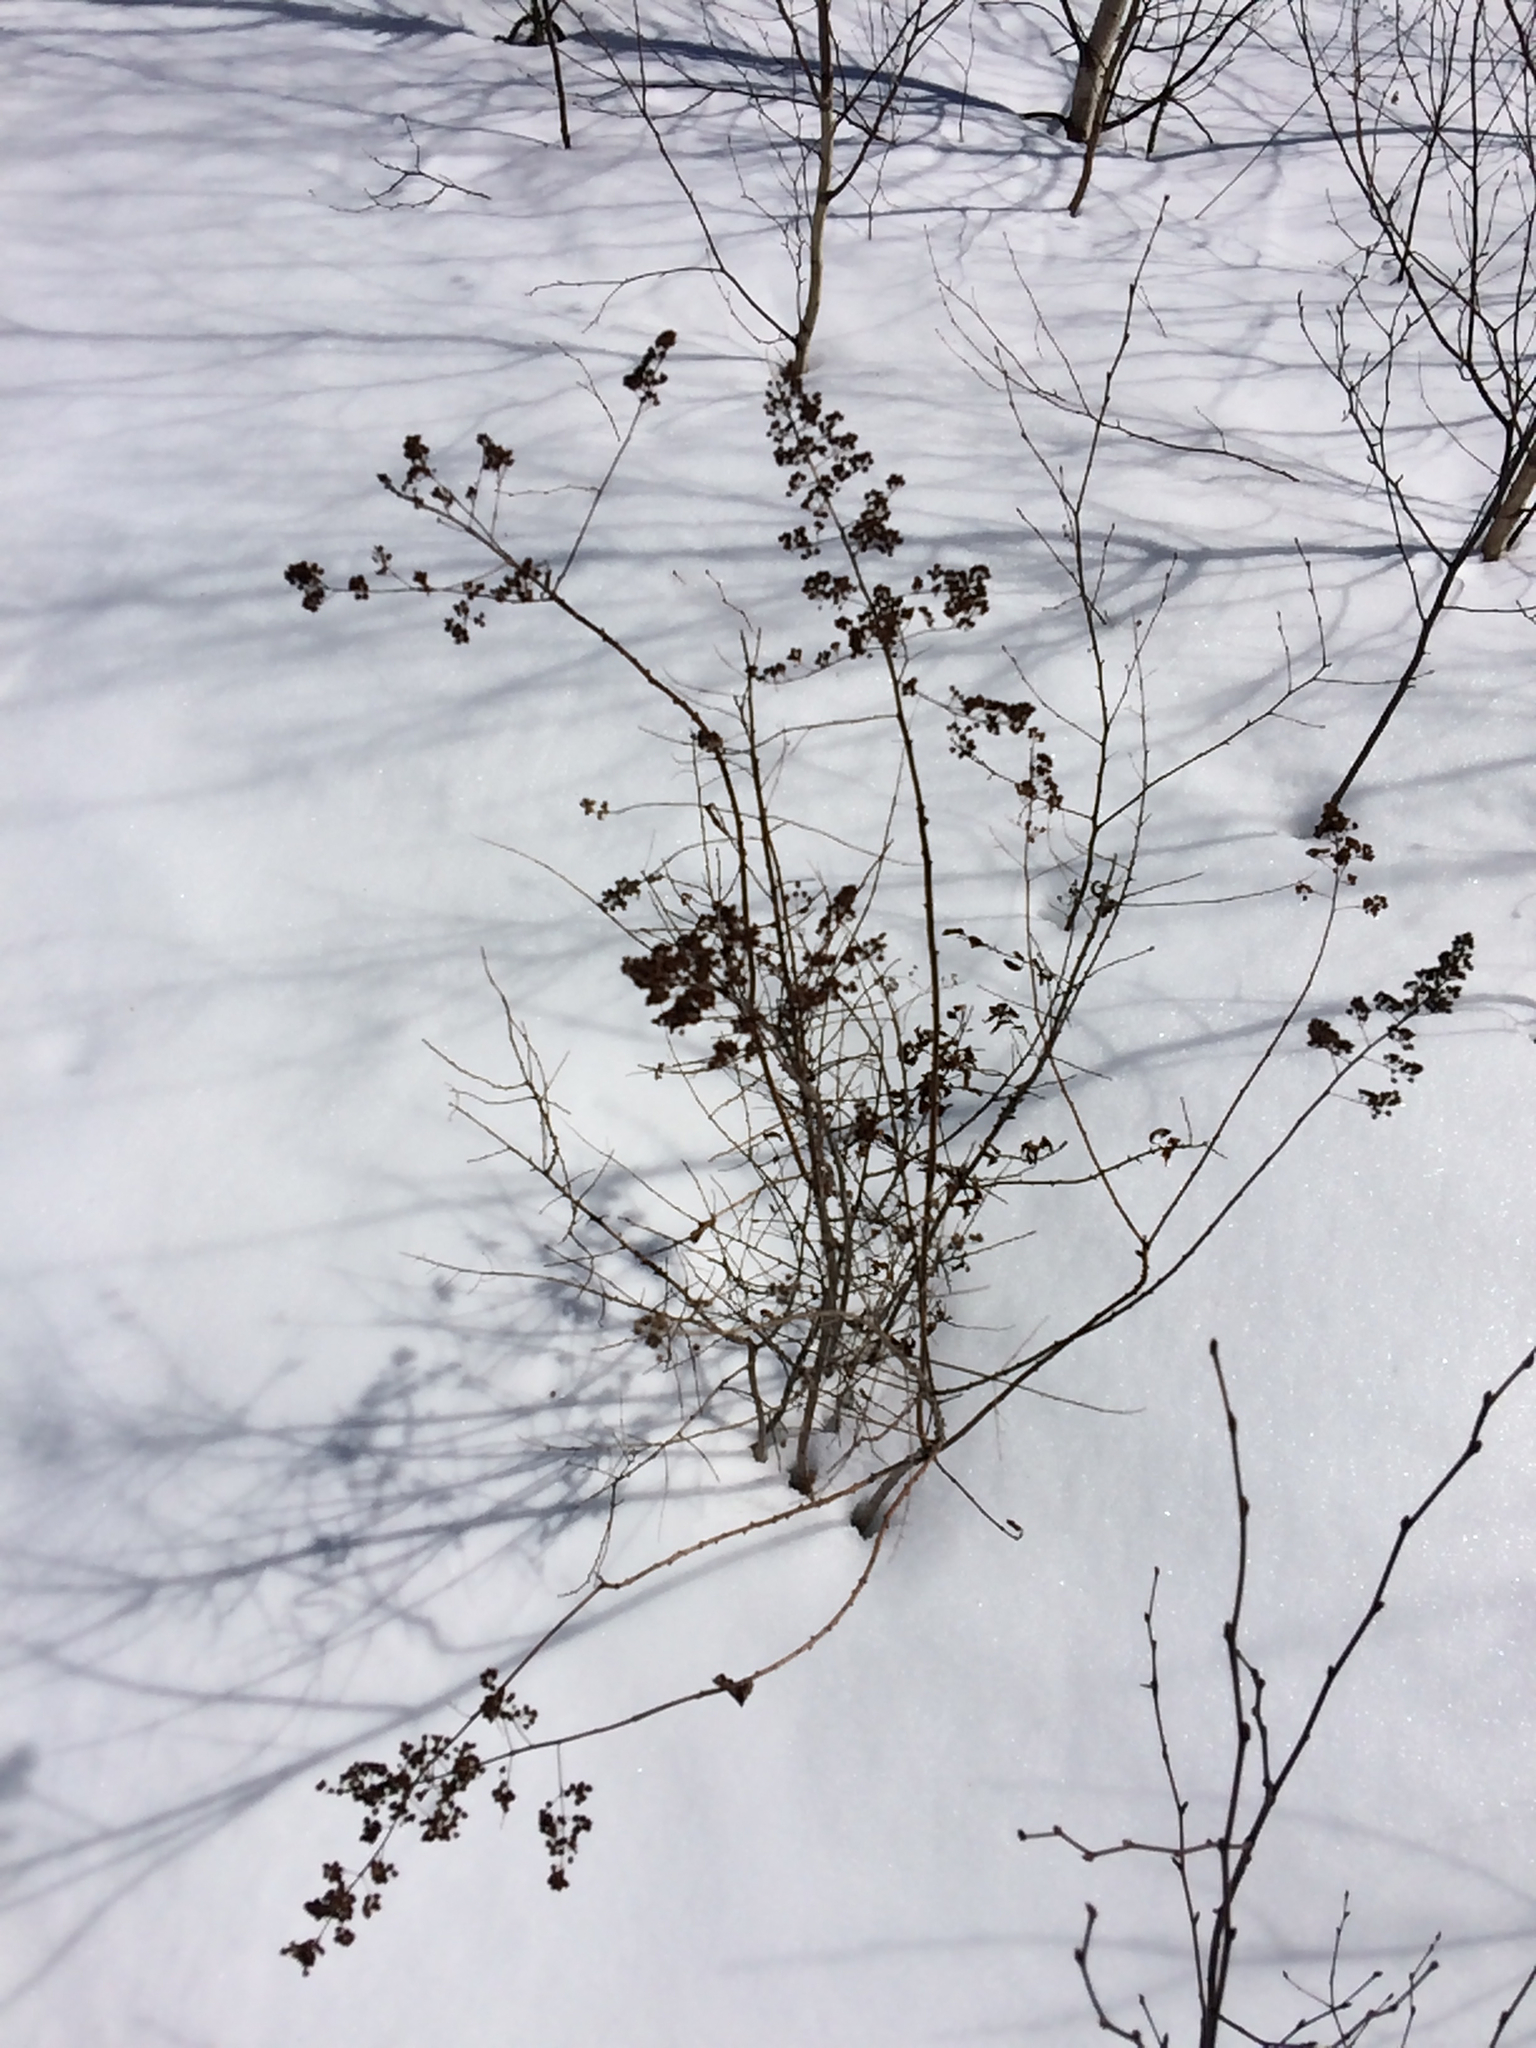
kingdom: Plantae
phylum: Tracheophyta
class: Magnoliopsida
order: Rosales
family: Rosaceae
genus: Spiraea
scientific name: Spiraea alba
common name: Pale bridewort
